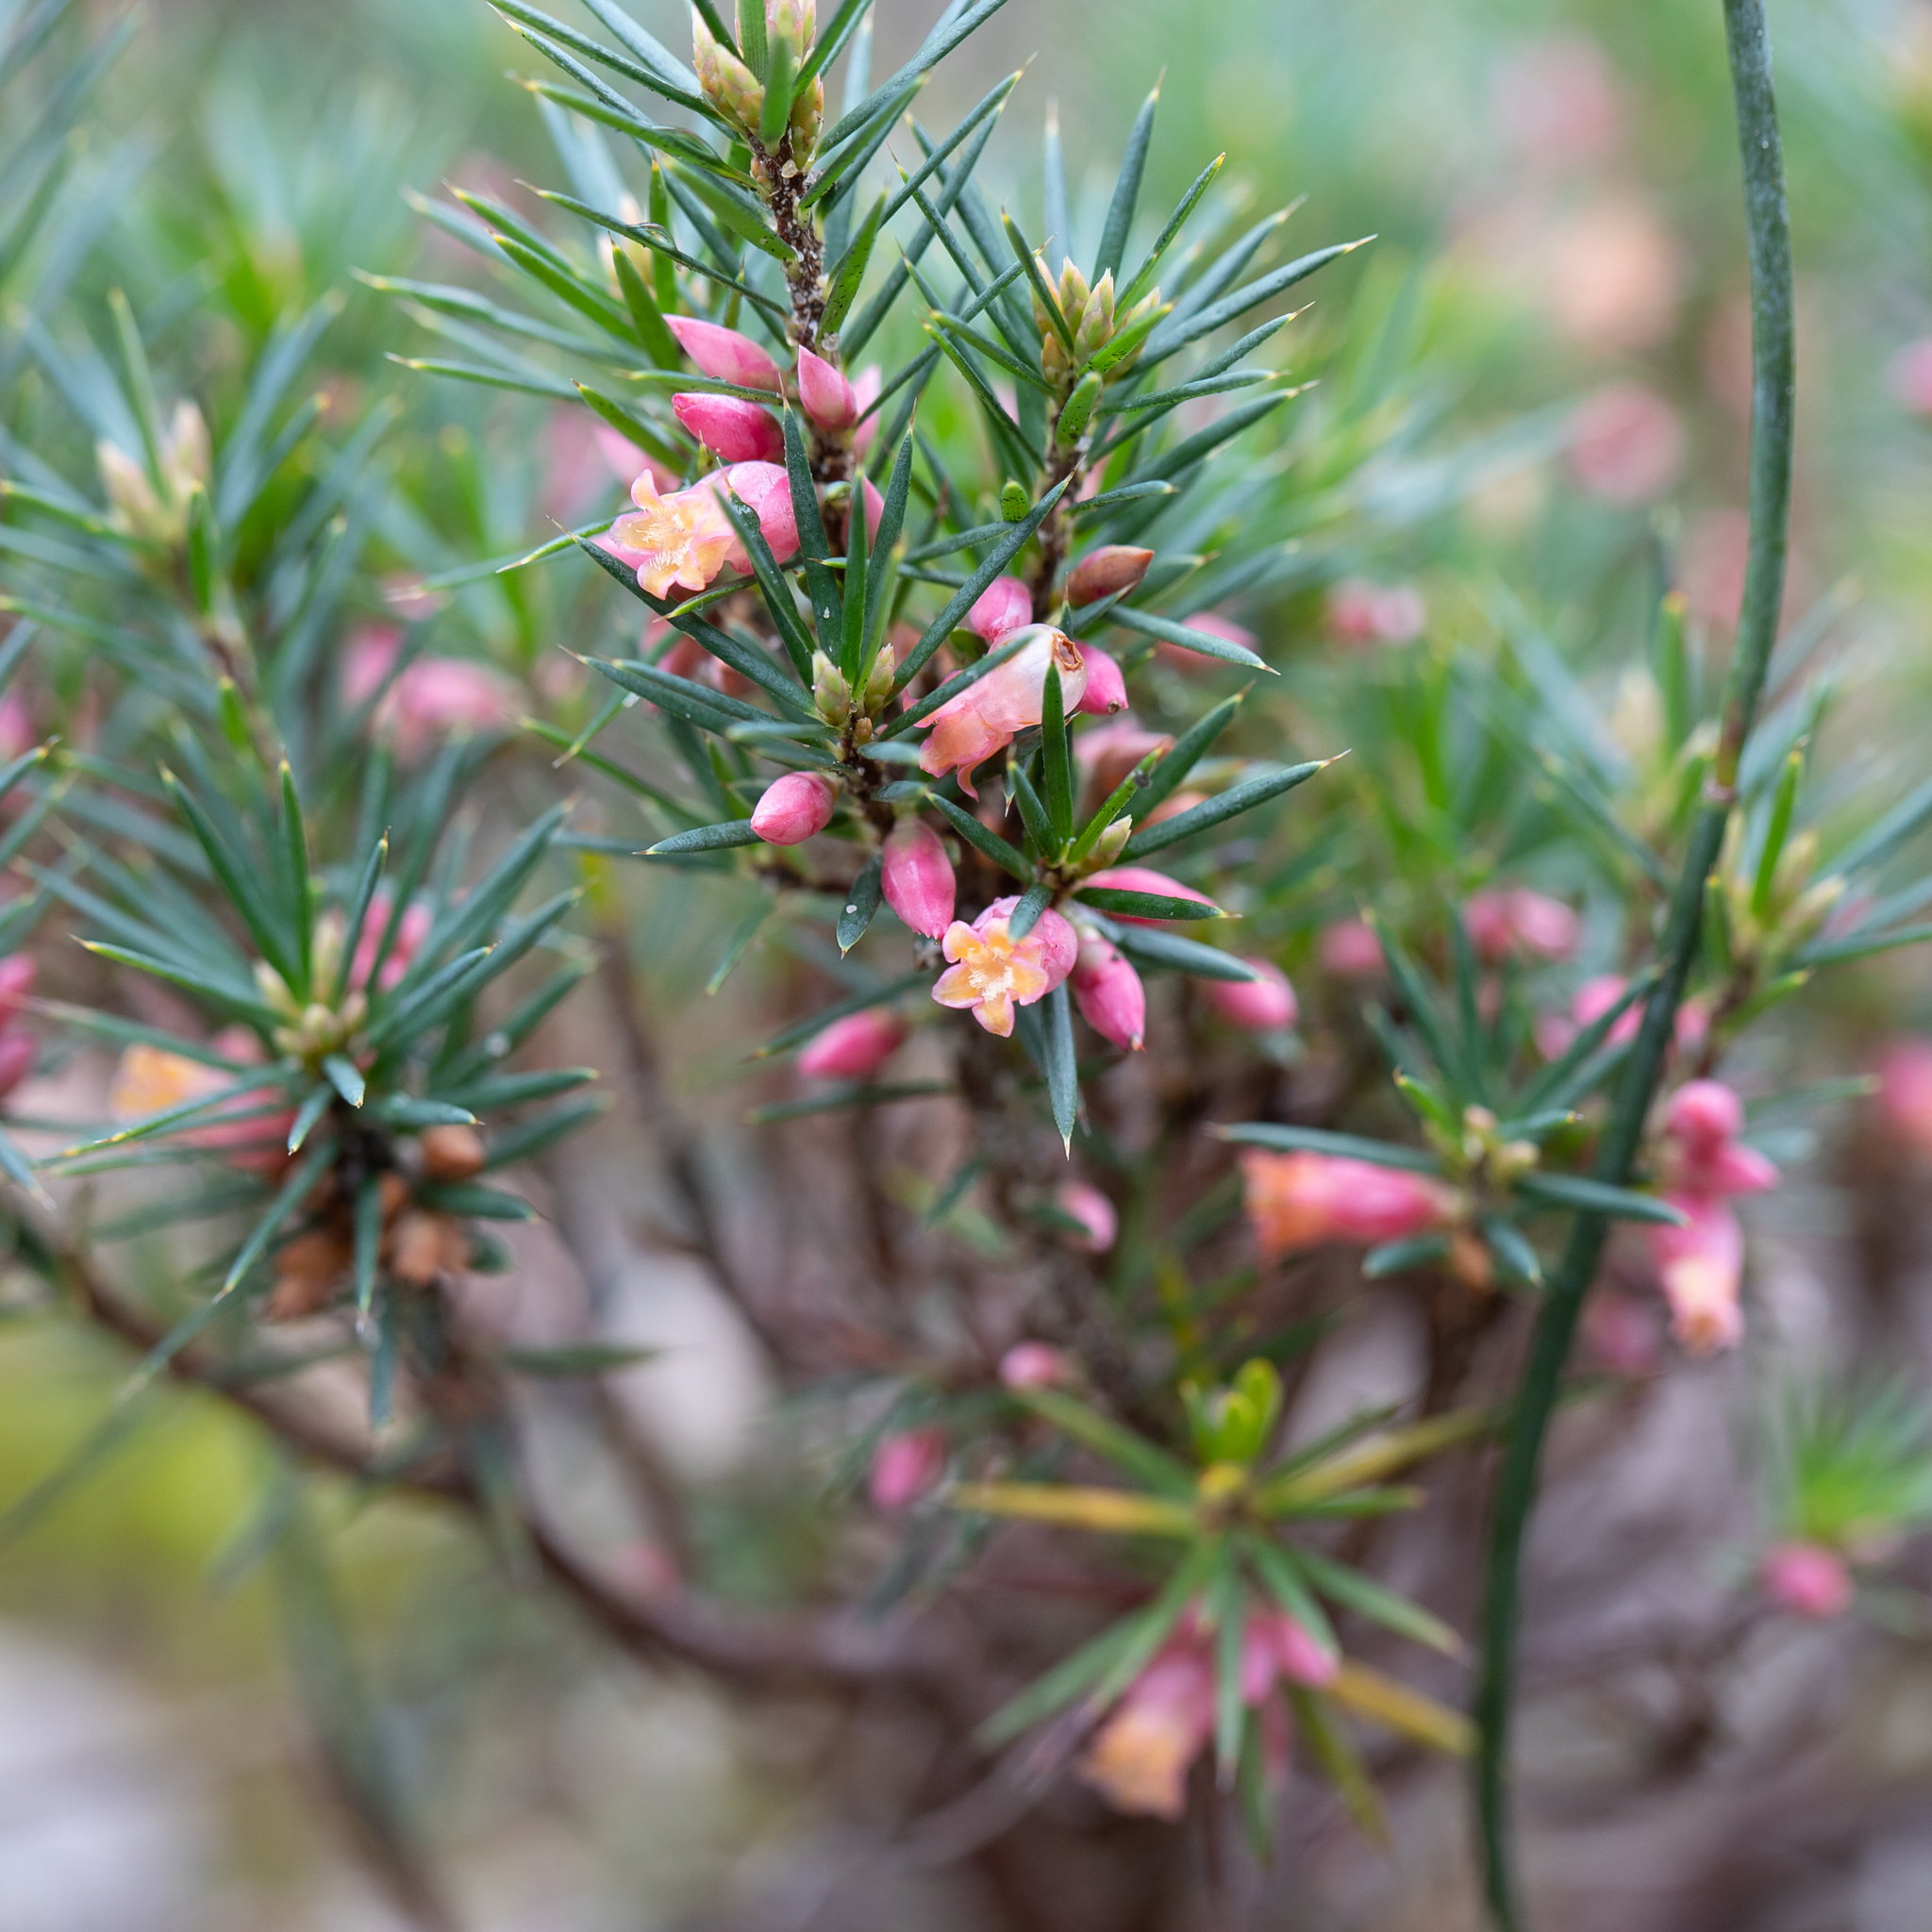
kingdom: Plantae
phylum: Tracheophyta
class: Magnoliopsida
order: Ericales
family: Ericaceae
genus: Brachyloma
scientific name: Brachyloma ericoides
